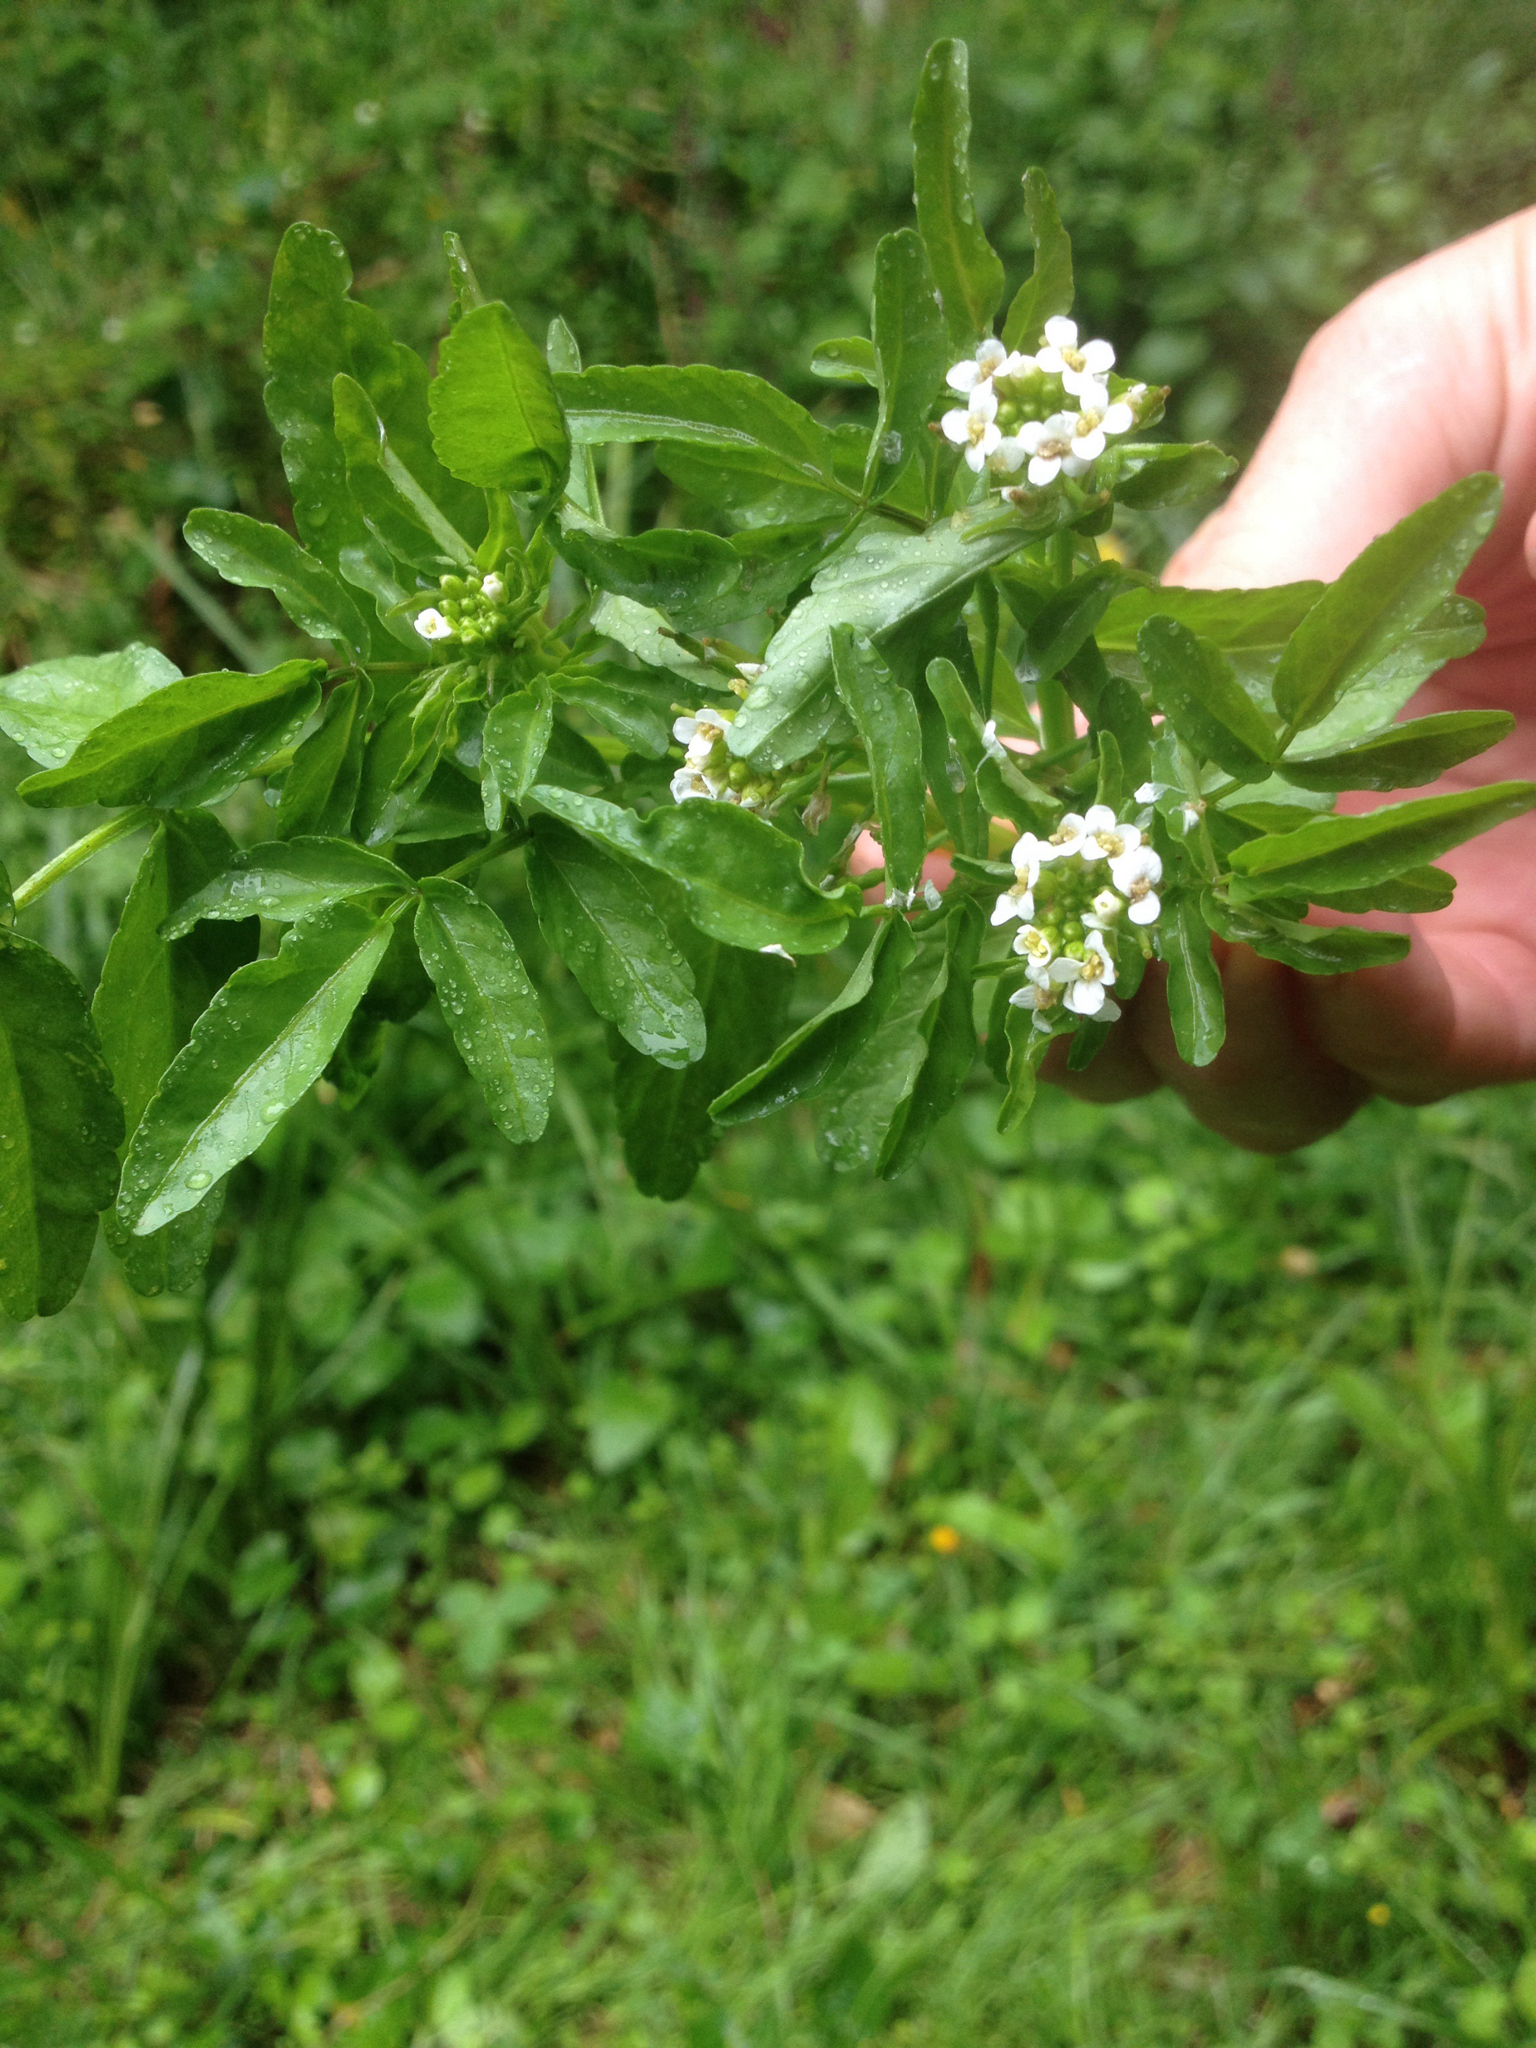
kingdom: Plantae
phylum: Tracheophyta
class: Magnoliopsida
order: Brassicales
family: Brassicaceae
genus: Nasturtium
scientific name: Nasturtium officinale
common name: Watercress
